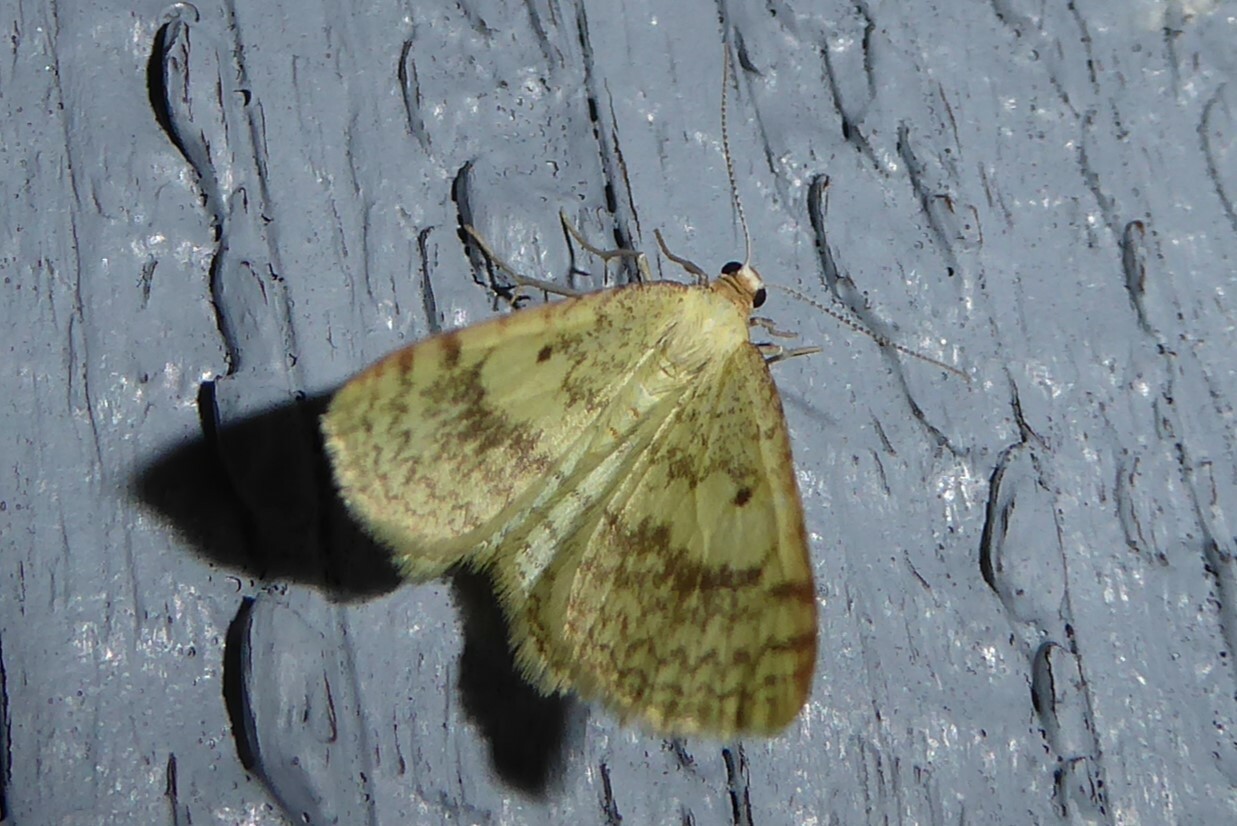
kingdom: Animalia
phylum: Arthropoda
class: Insecta
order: Lepidoptera
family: Geometridae
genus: Epiphryne
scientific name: Epiphryne undosata
